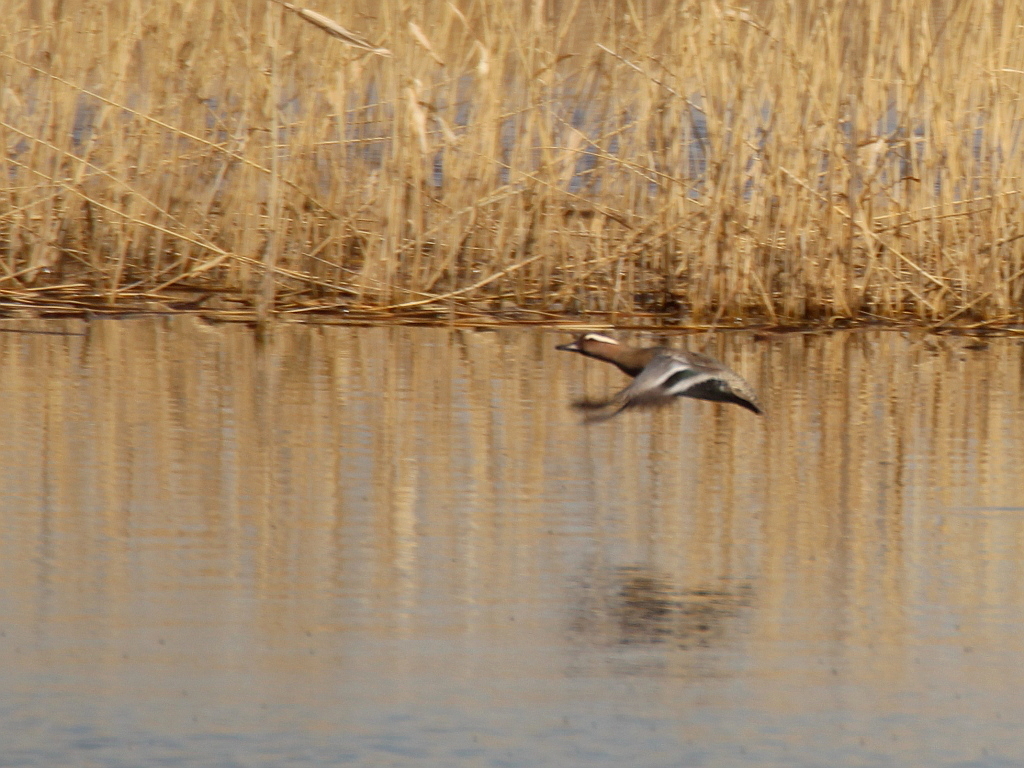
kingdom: Animalia
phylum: Chordata
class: Aves
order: Anseriformes
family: Anatidae
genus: Spatula
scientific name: Spatula querquedula
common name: Garganey
